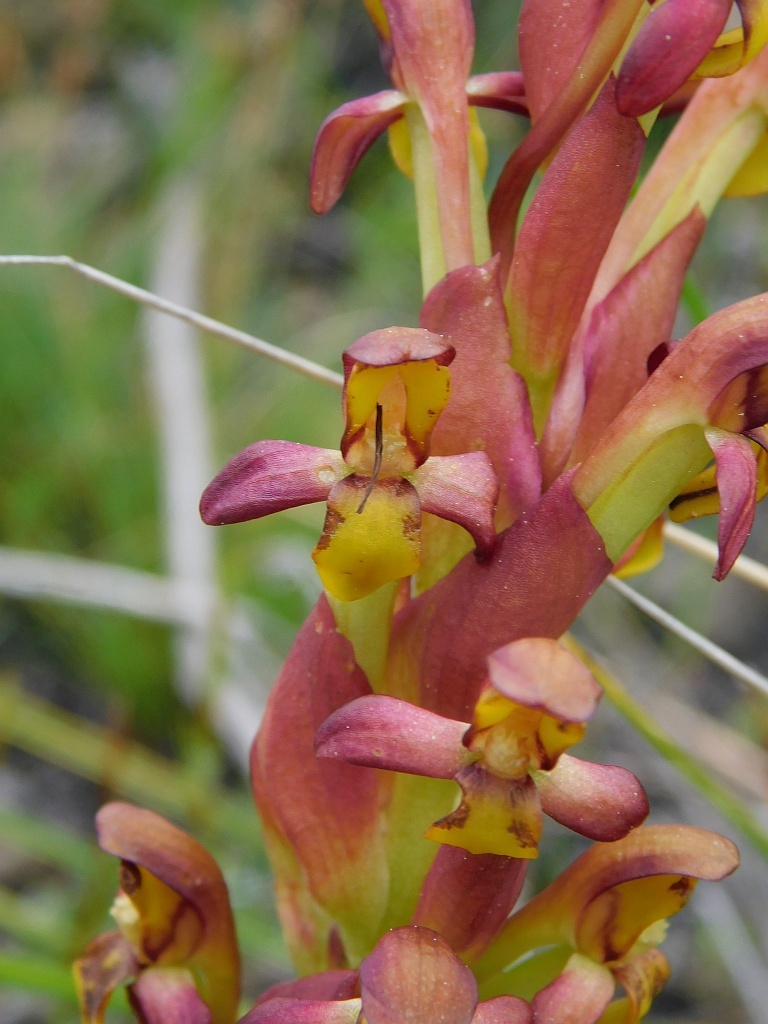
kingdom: Plantae
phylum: Tracheophyta
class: Liliopsida
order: Asparagales
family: Orchidaceae
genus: Disa
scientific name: Disa comosa
